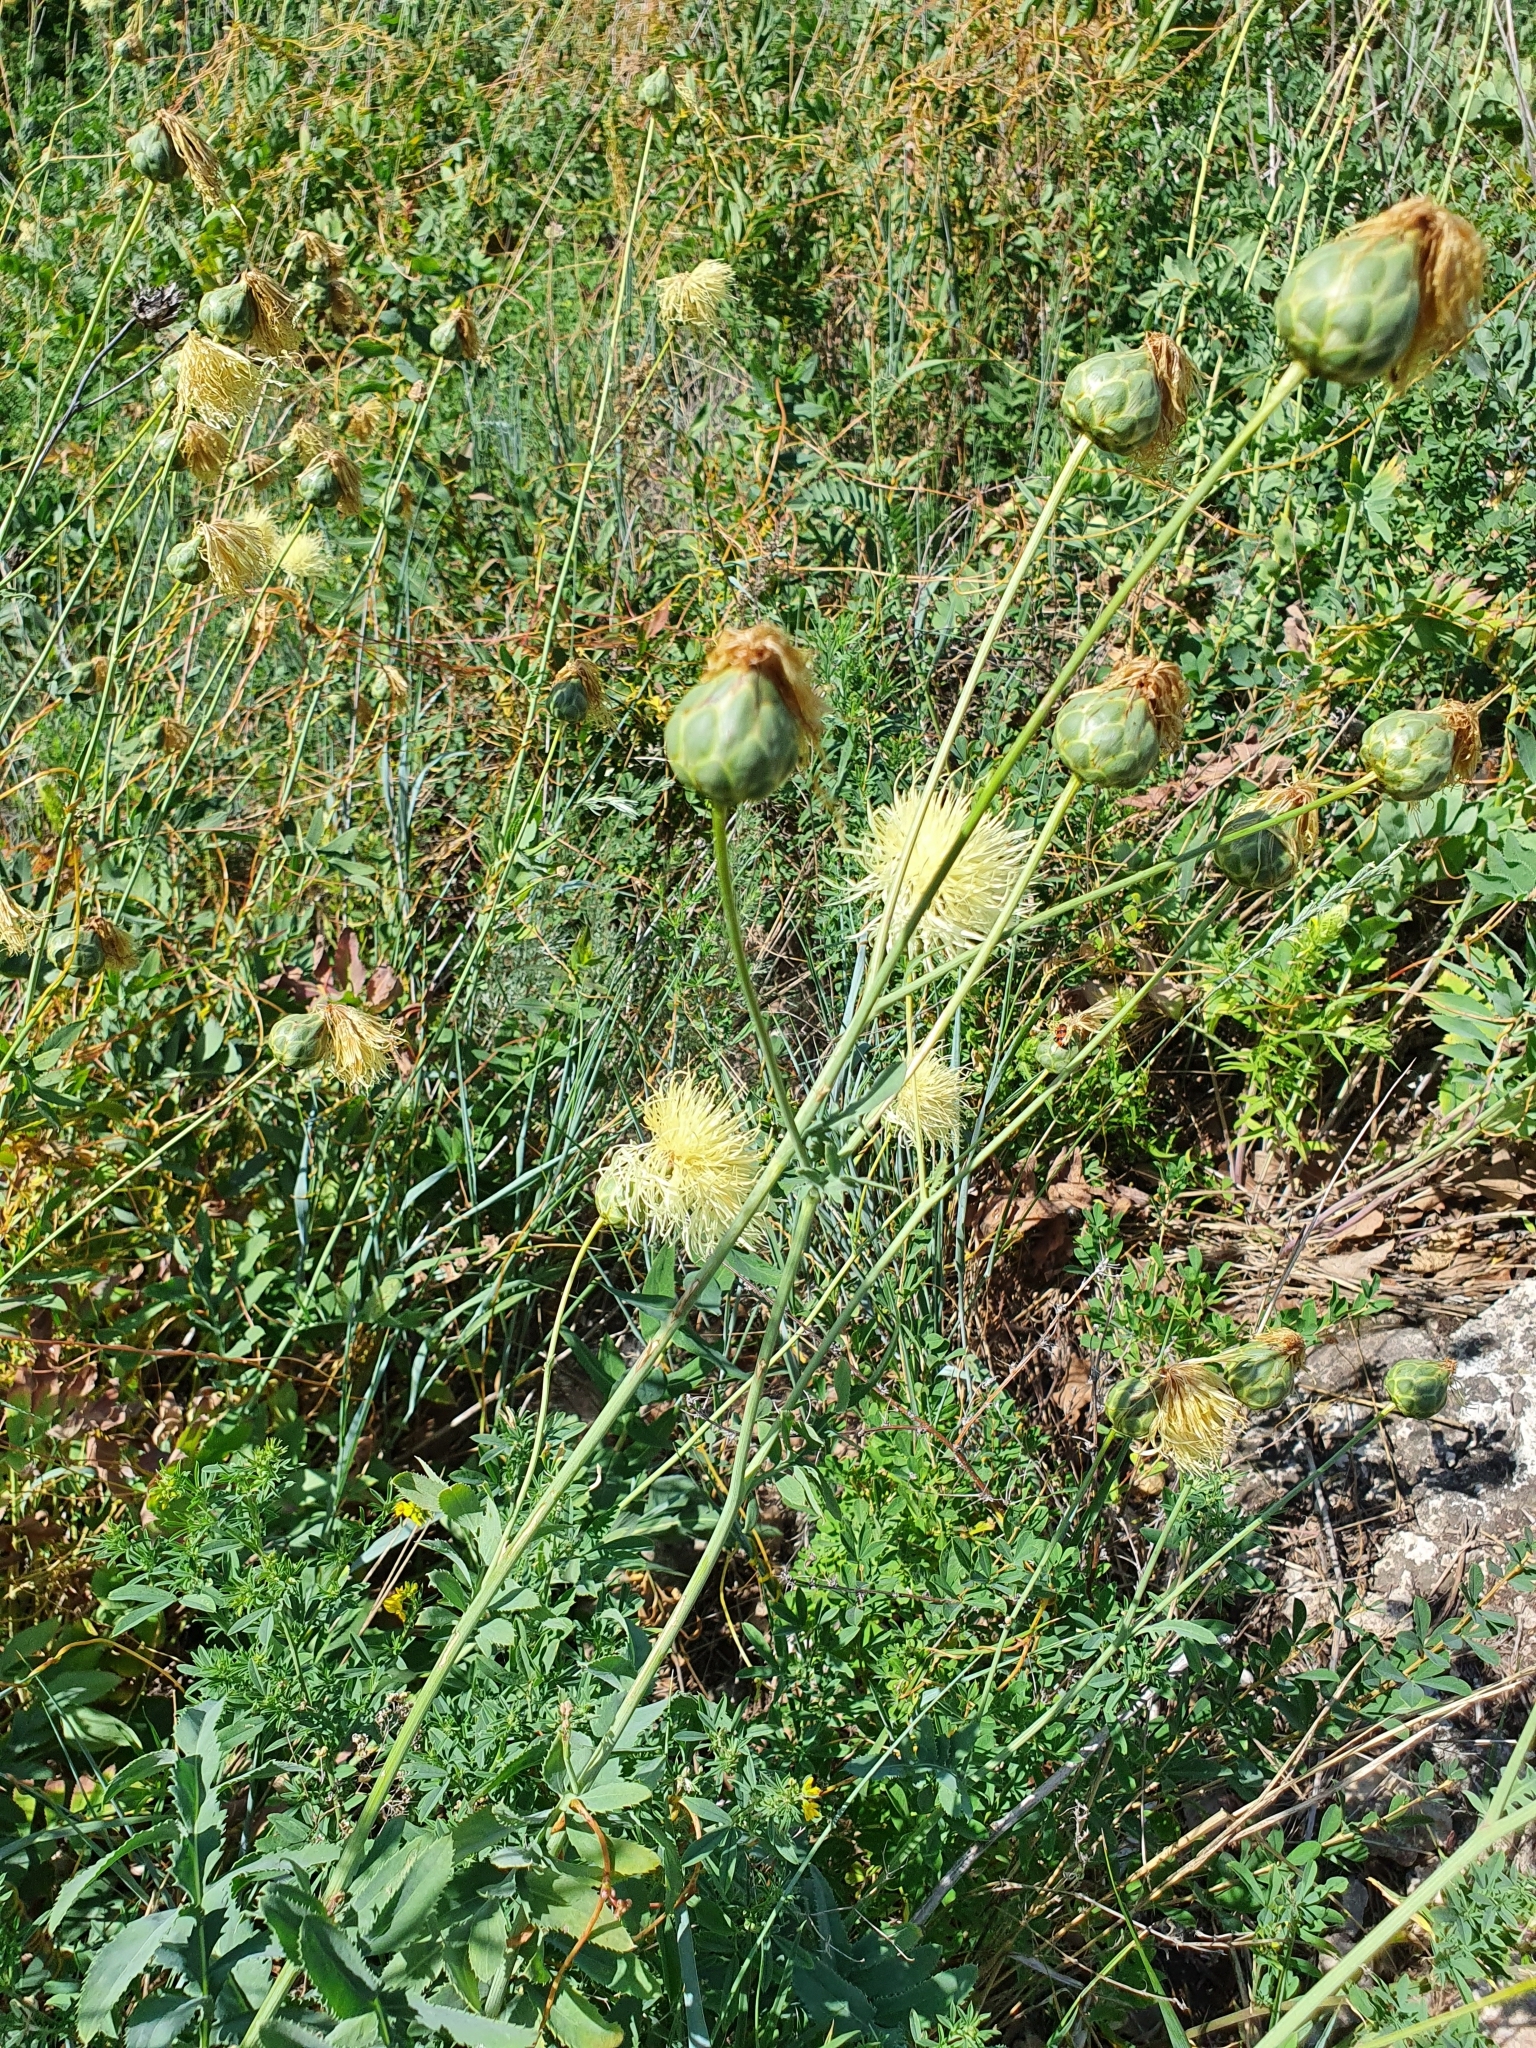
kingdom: Plantae
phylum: Tracheophyta
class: Magnoliopsida
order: Asterales
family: Asteraceae
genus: Rhaponticoides
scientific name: Rhaponticoides ruthenica
